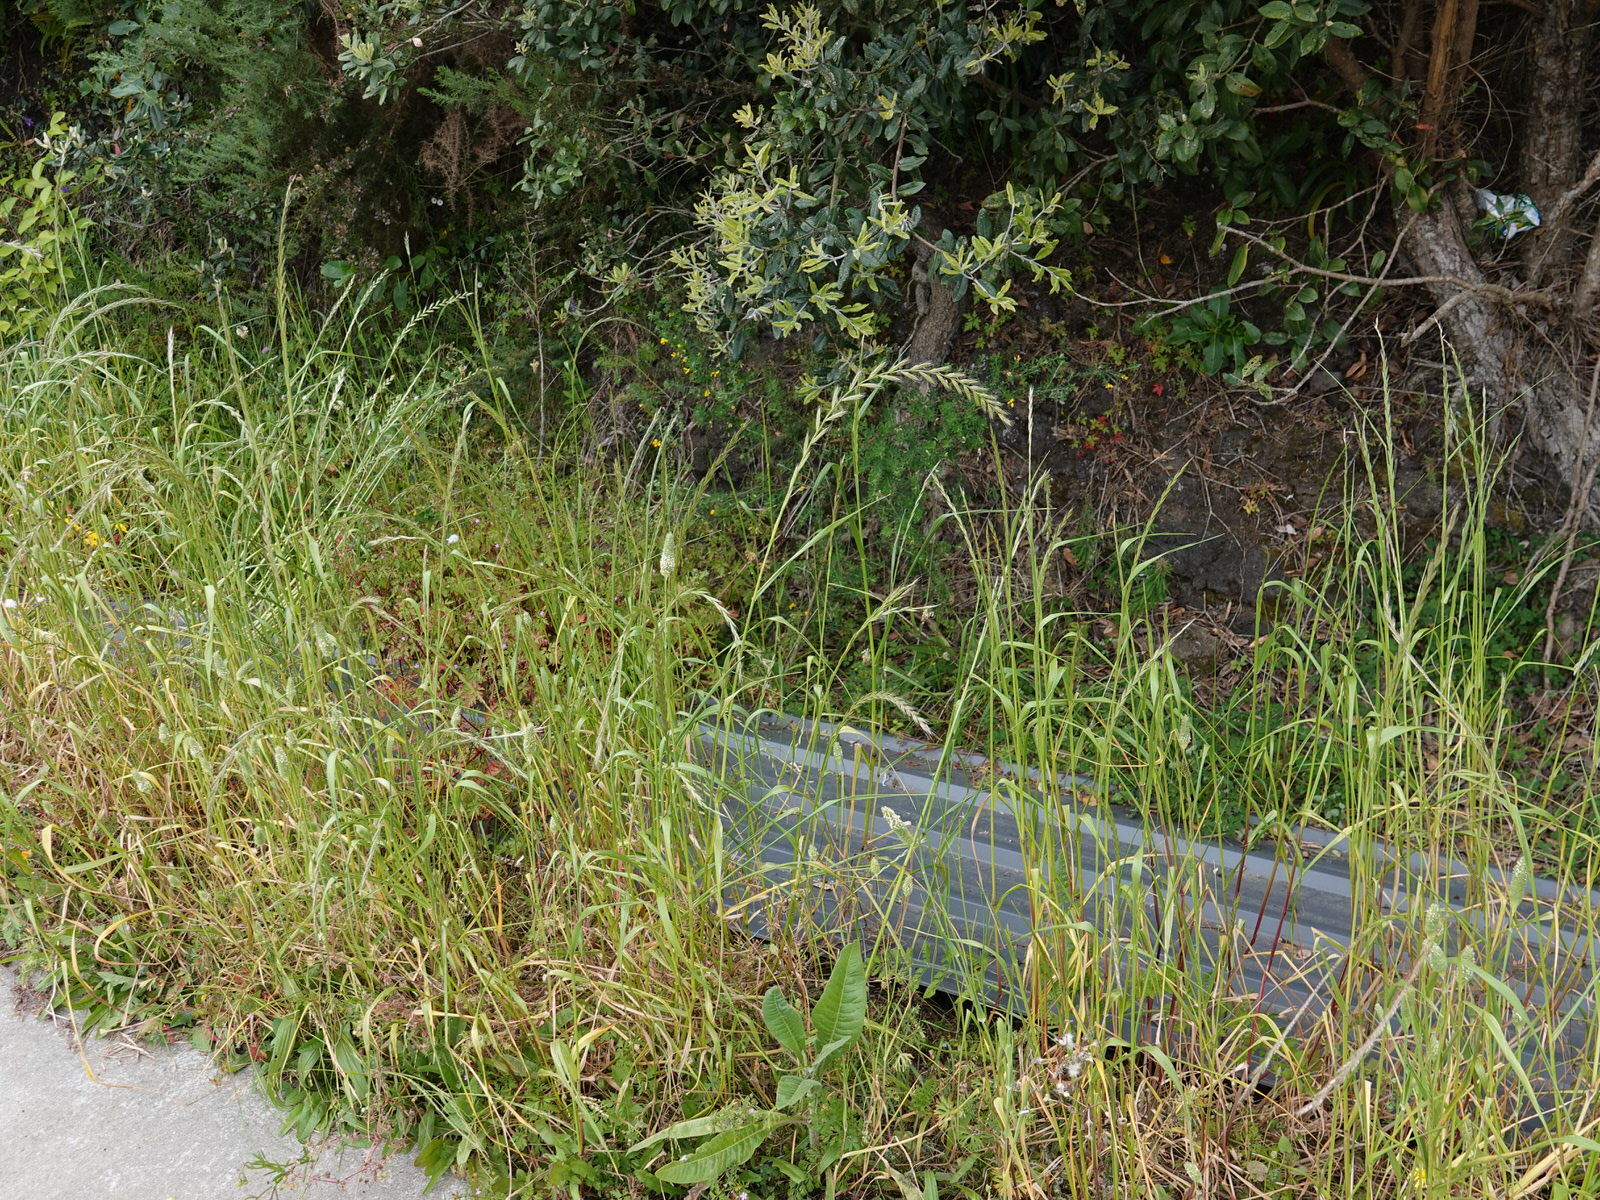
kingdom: Plantae
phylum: Tracheophyta
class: Liliopsida
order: Poales
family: Poaceae
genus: Lolium
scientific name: Lolium multiflorum
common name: Annual ryegrass
